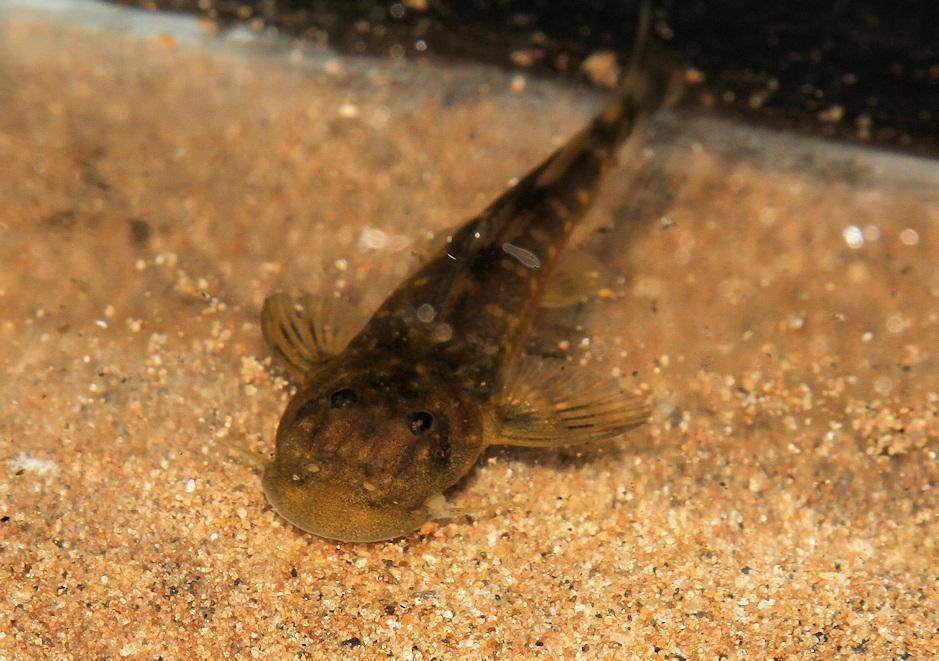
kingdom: Animalia
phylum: Chordata
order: Siluriformes
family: Mochokidae
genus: Chiloglanis
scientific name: Chiloglanis pretoriae
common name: Shortspine catlet
